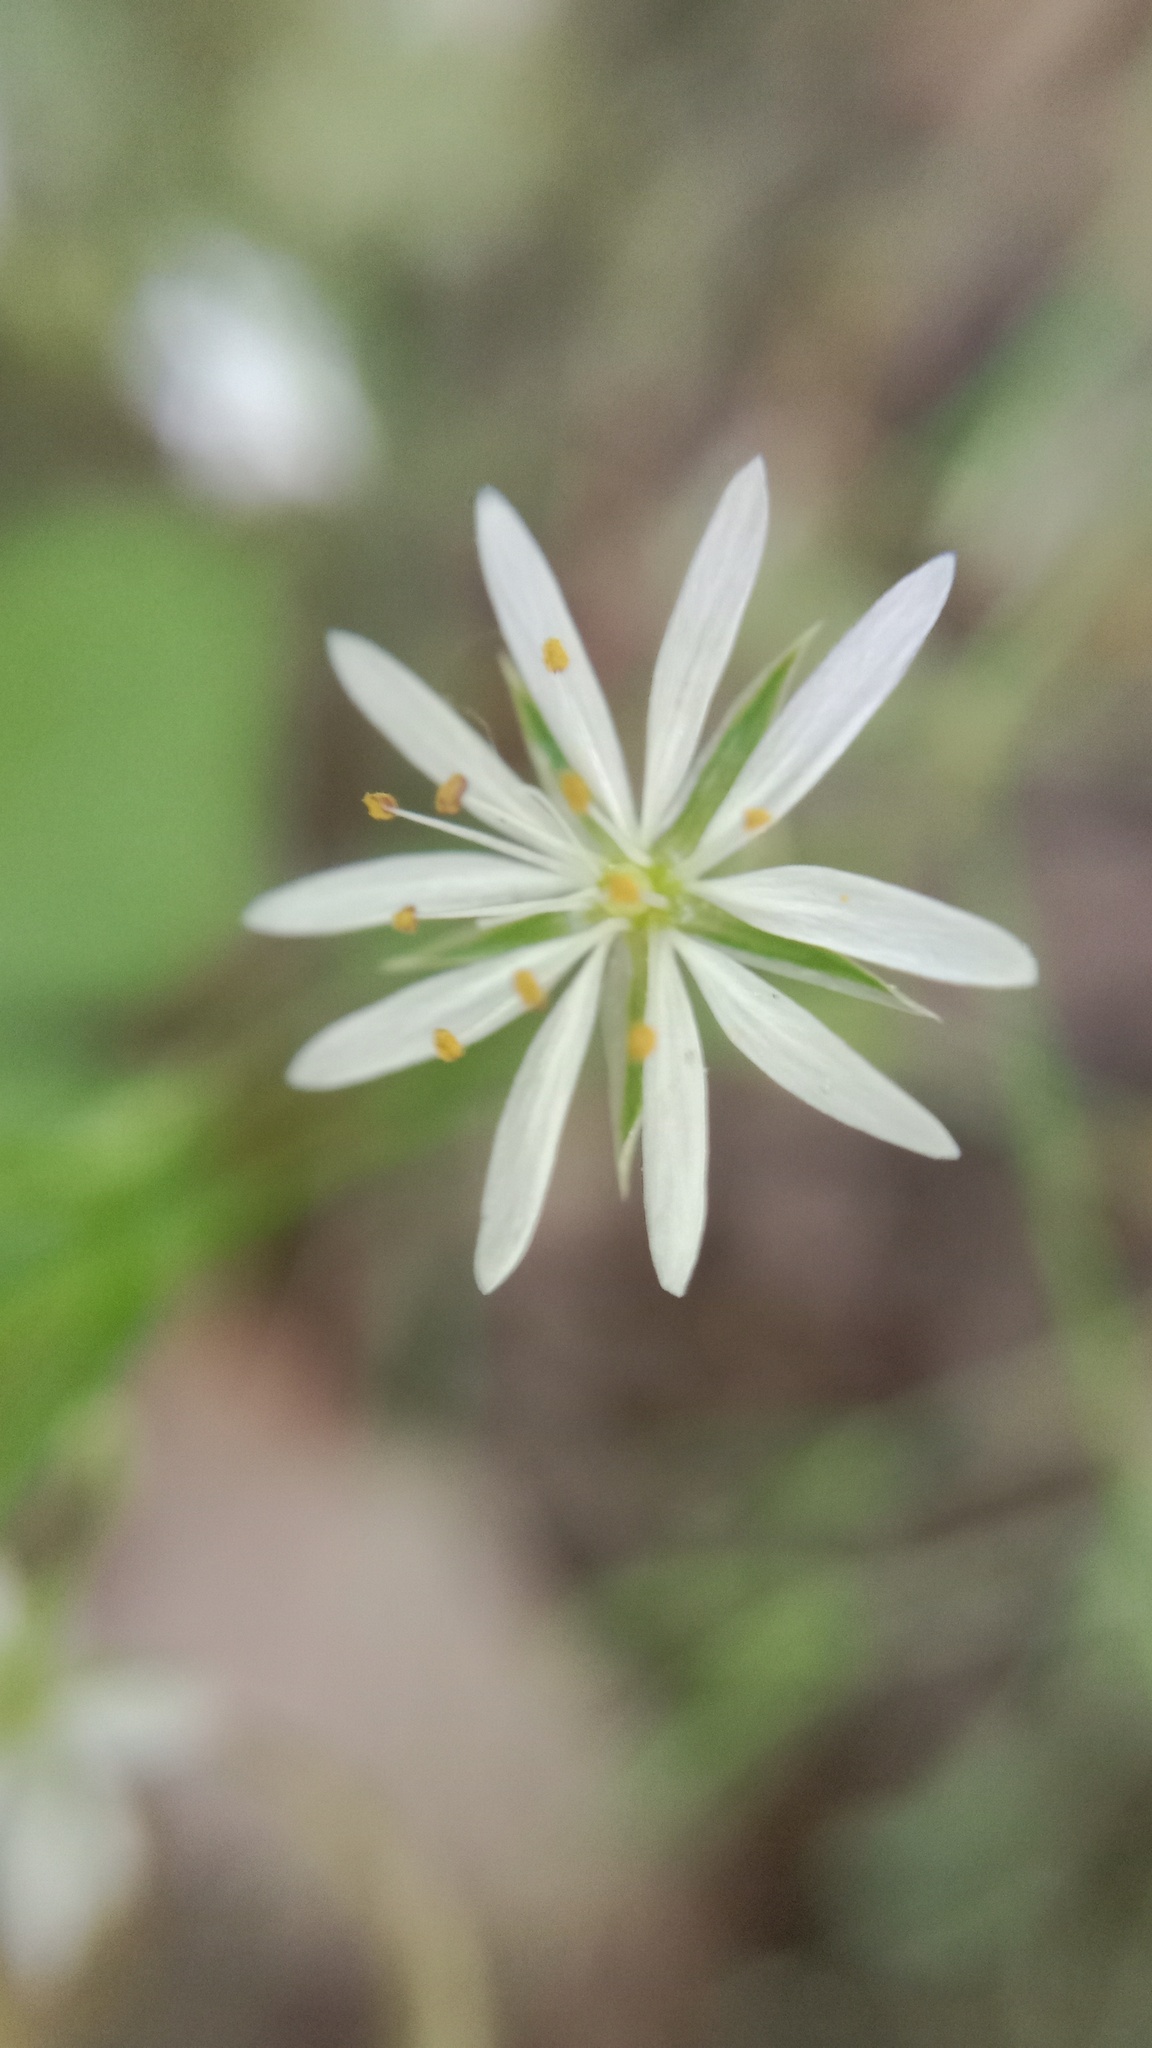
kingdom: Plantae
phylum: Tracheophyta
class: Magnoliopsida
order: Caryophyllales
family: Caryophyllaceae
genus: Stellaria
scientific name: Stellaria graminea
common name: Grass-like starwort
